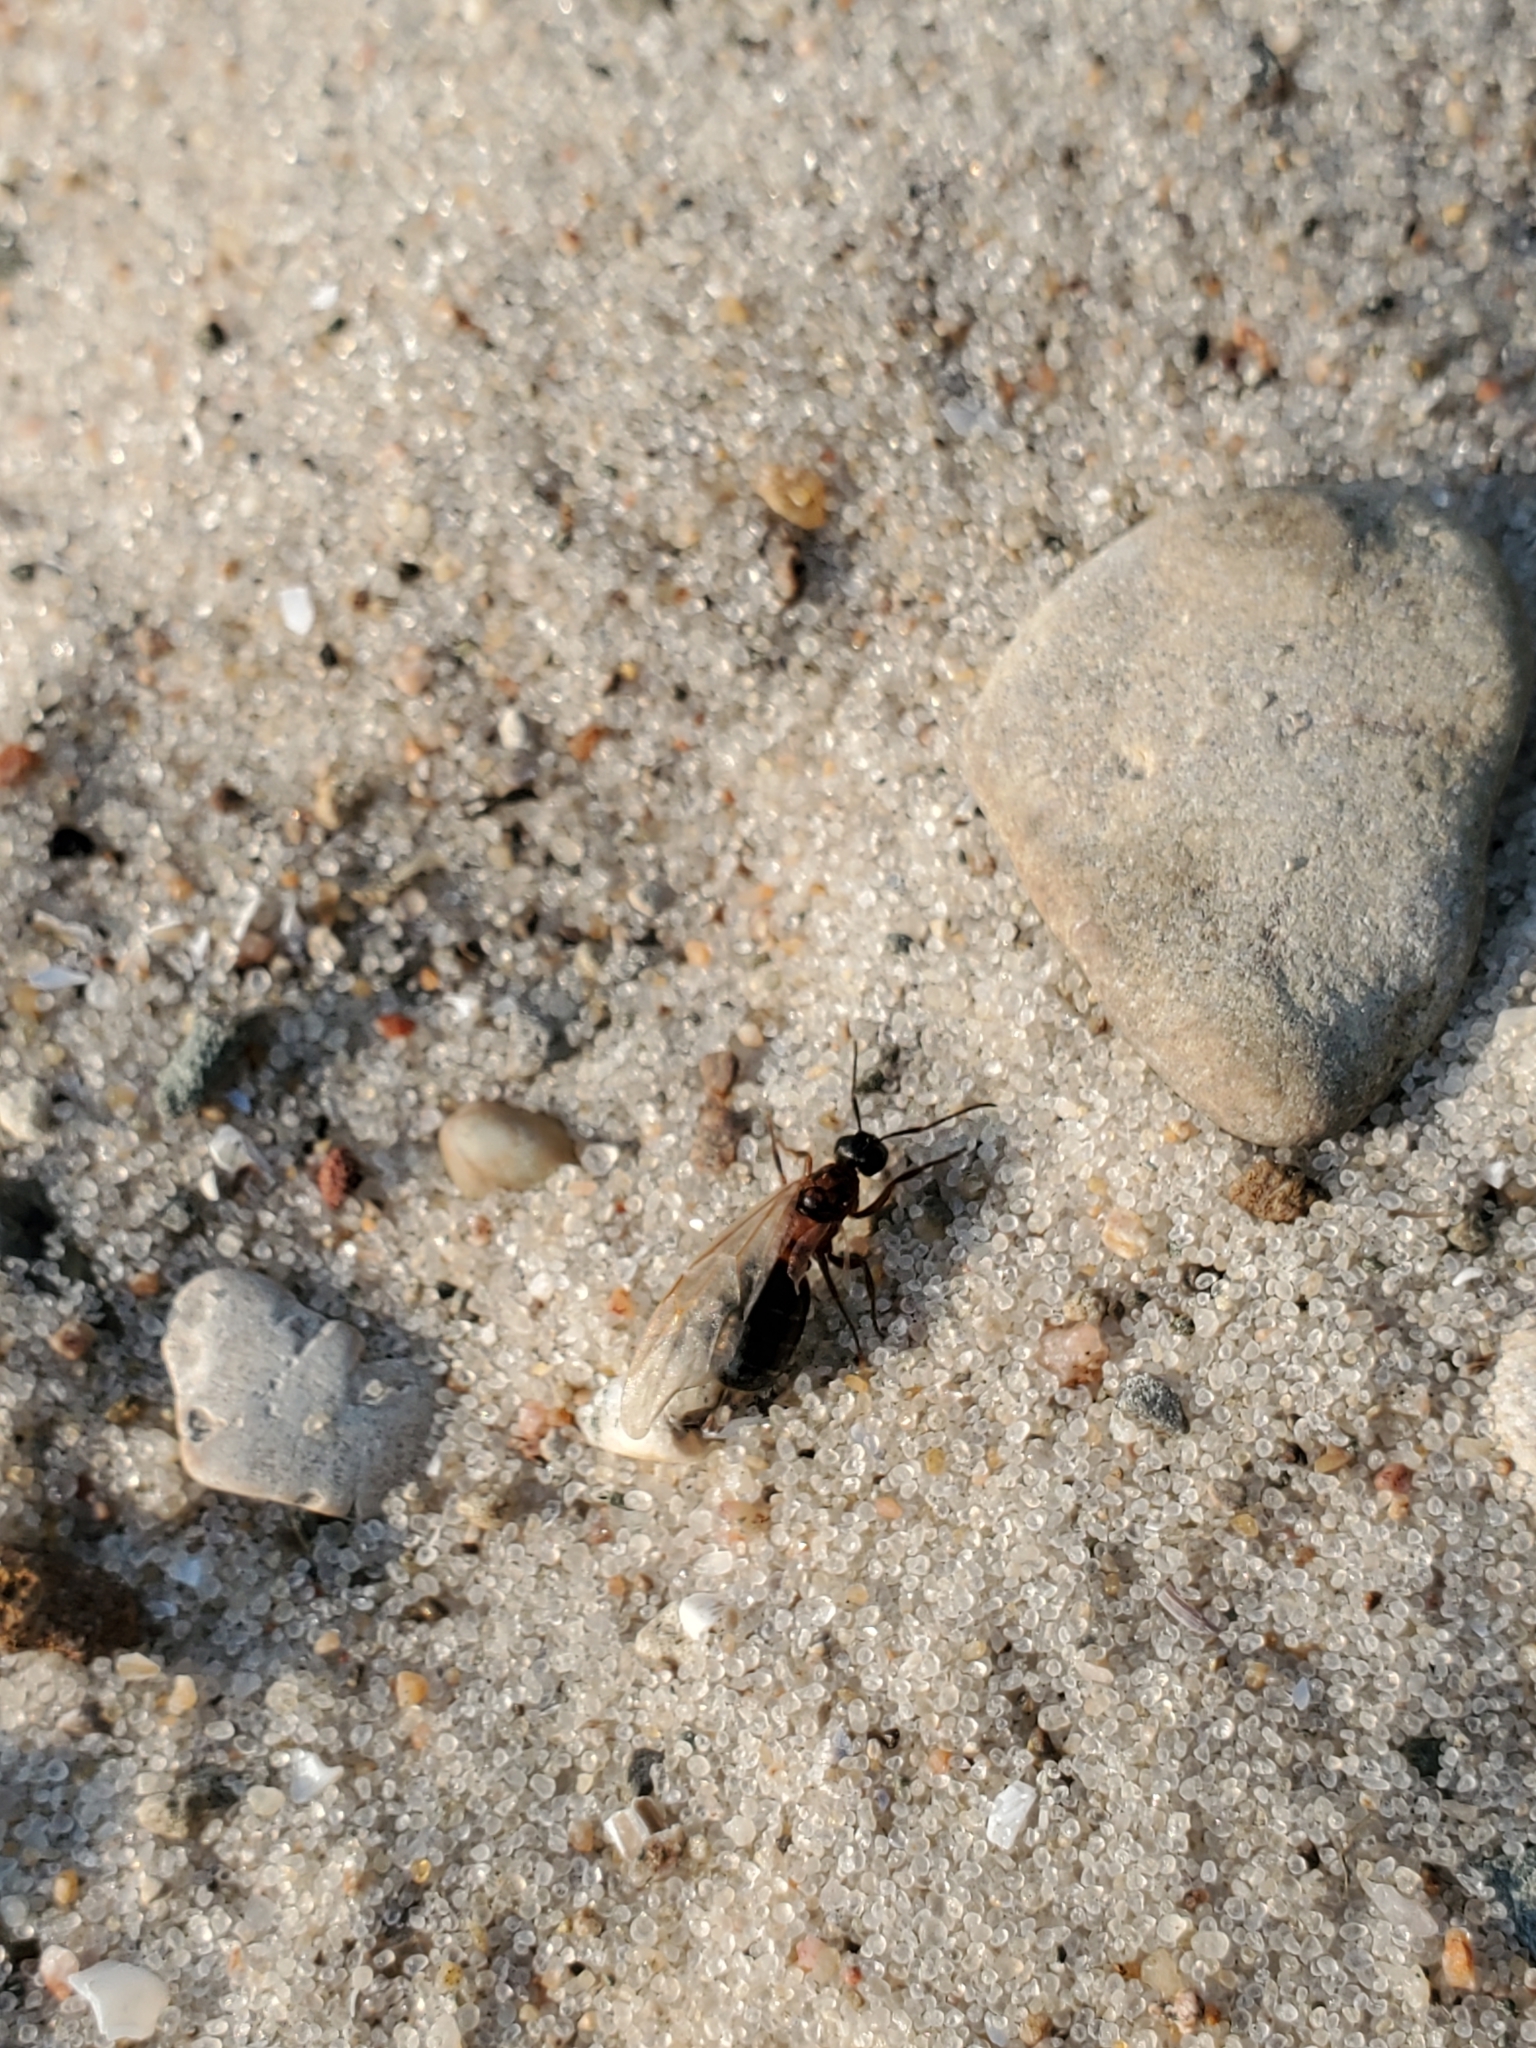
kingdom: Animalia
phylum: Arthropoda
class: Insecta
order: Hymenoptera
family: Formicidae
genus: Camponotus
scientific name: Camponotus novaeboracensis
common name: New york carpenter ant
